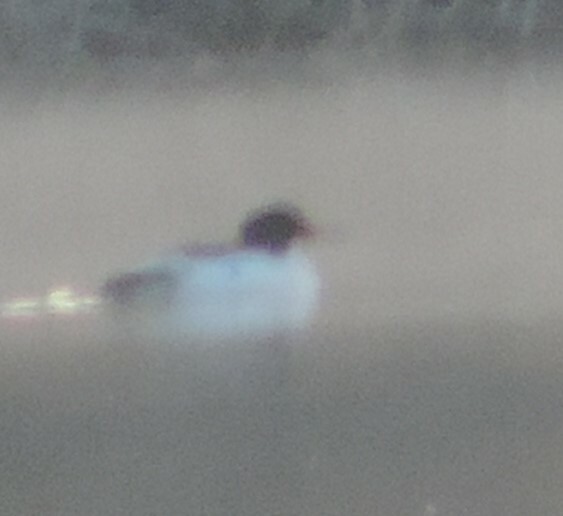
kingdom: Animalia
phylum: Chordata
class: Aves
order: Anseriformes
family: Anatidae
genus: Mergus
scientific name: Mergus merganser
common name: Common merganser
